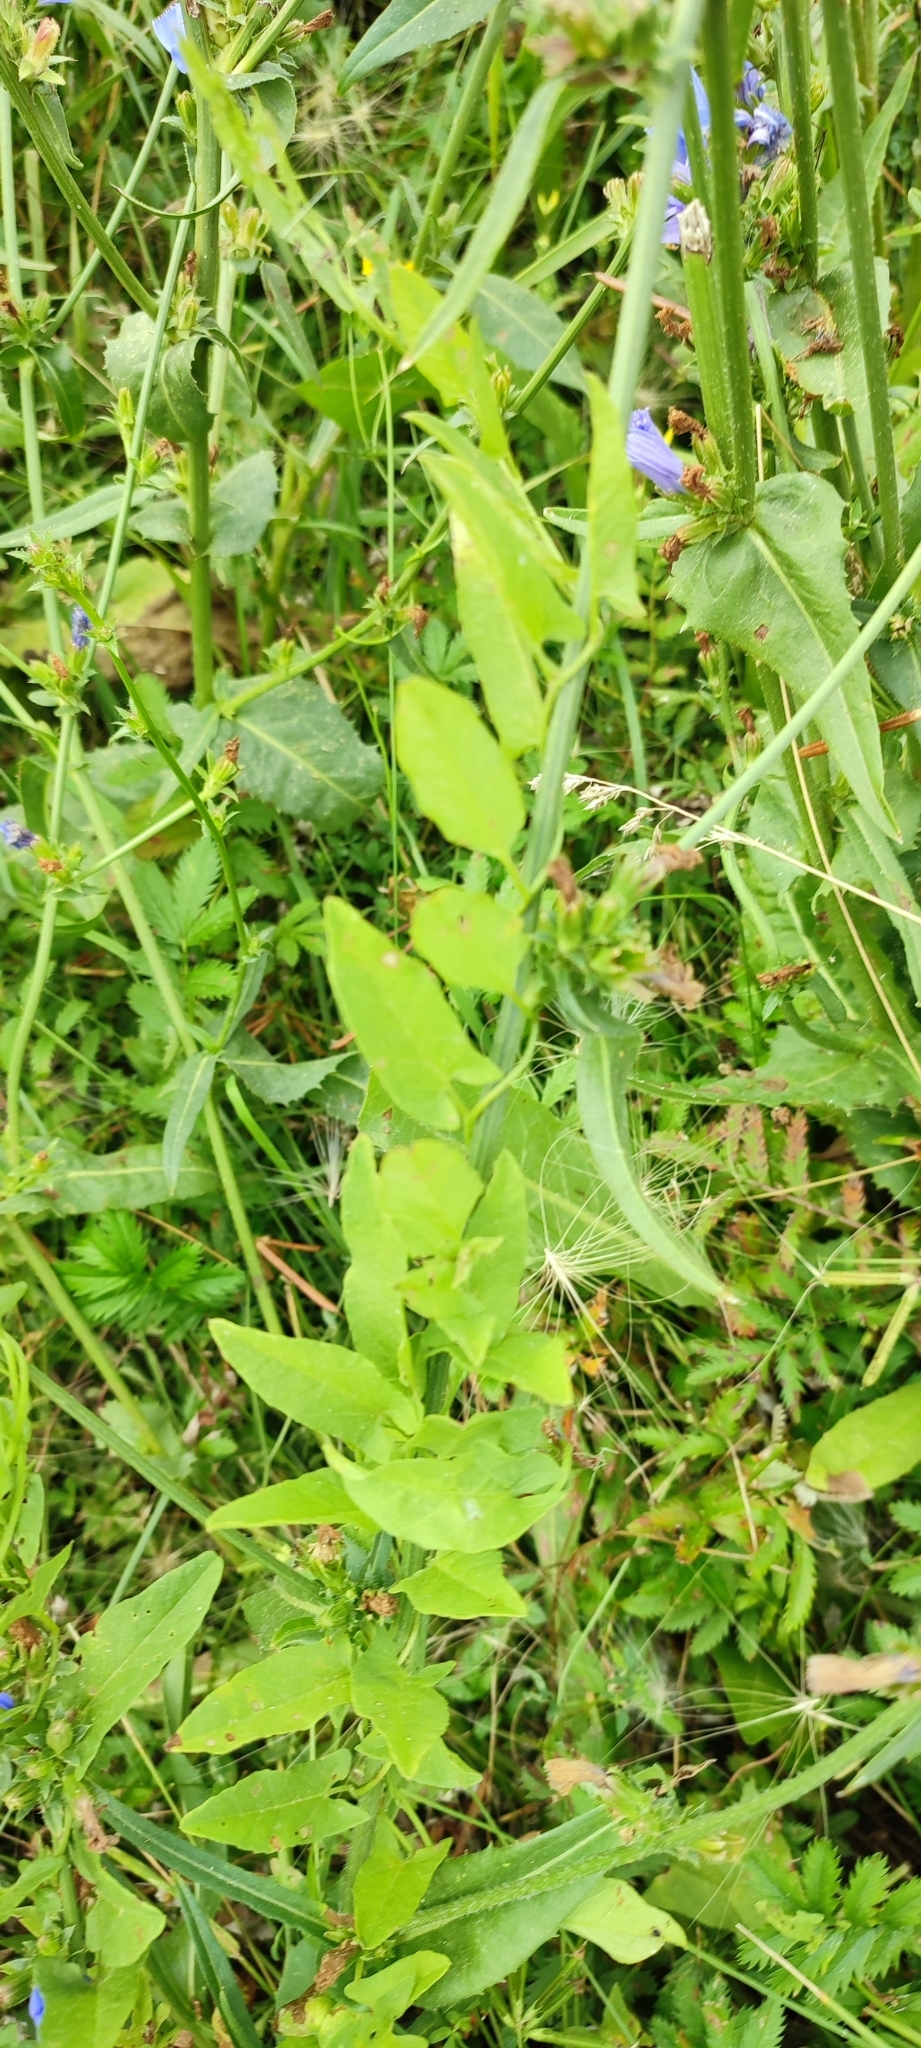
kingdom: Plantae
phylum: Tracheophyta
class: Magnoliopsida
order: Solanales
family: Convolvulaceae
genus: Convolvulus
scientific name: Convolvulus arvensis
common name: Field bindweed
